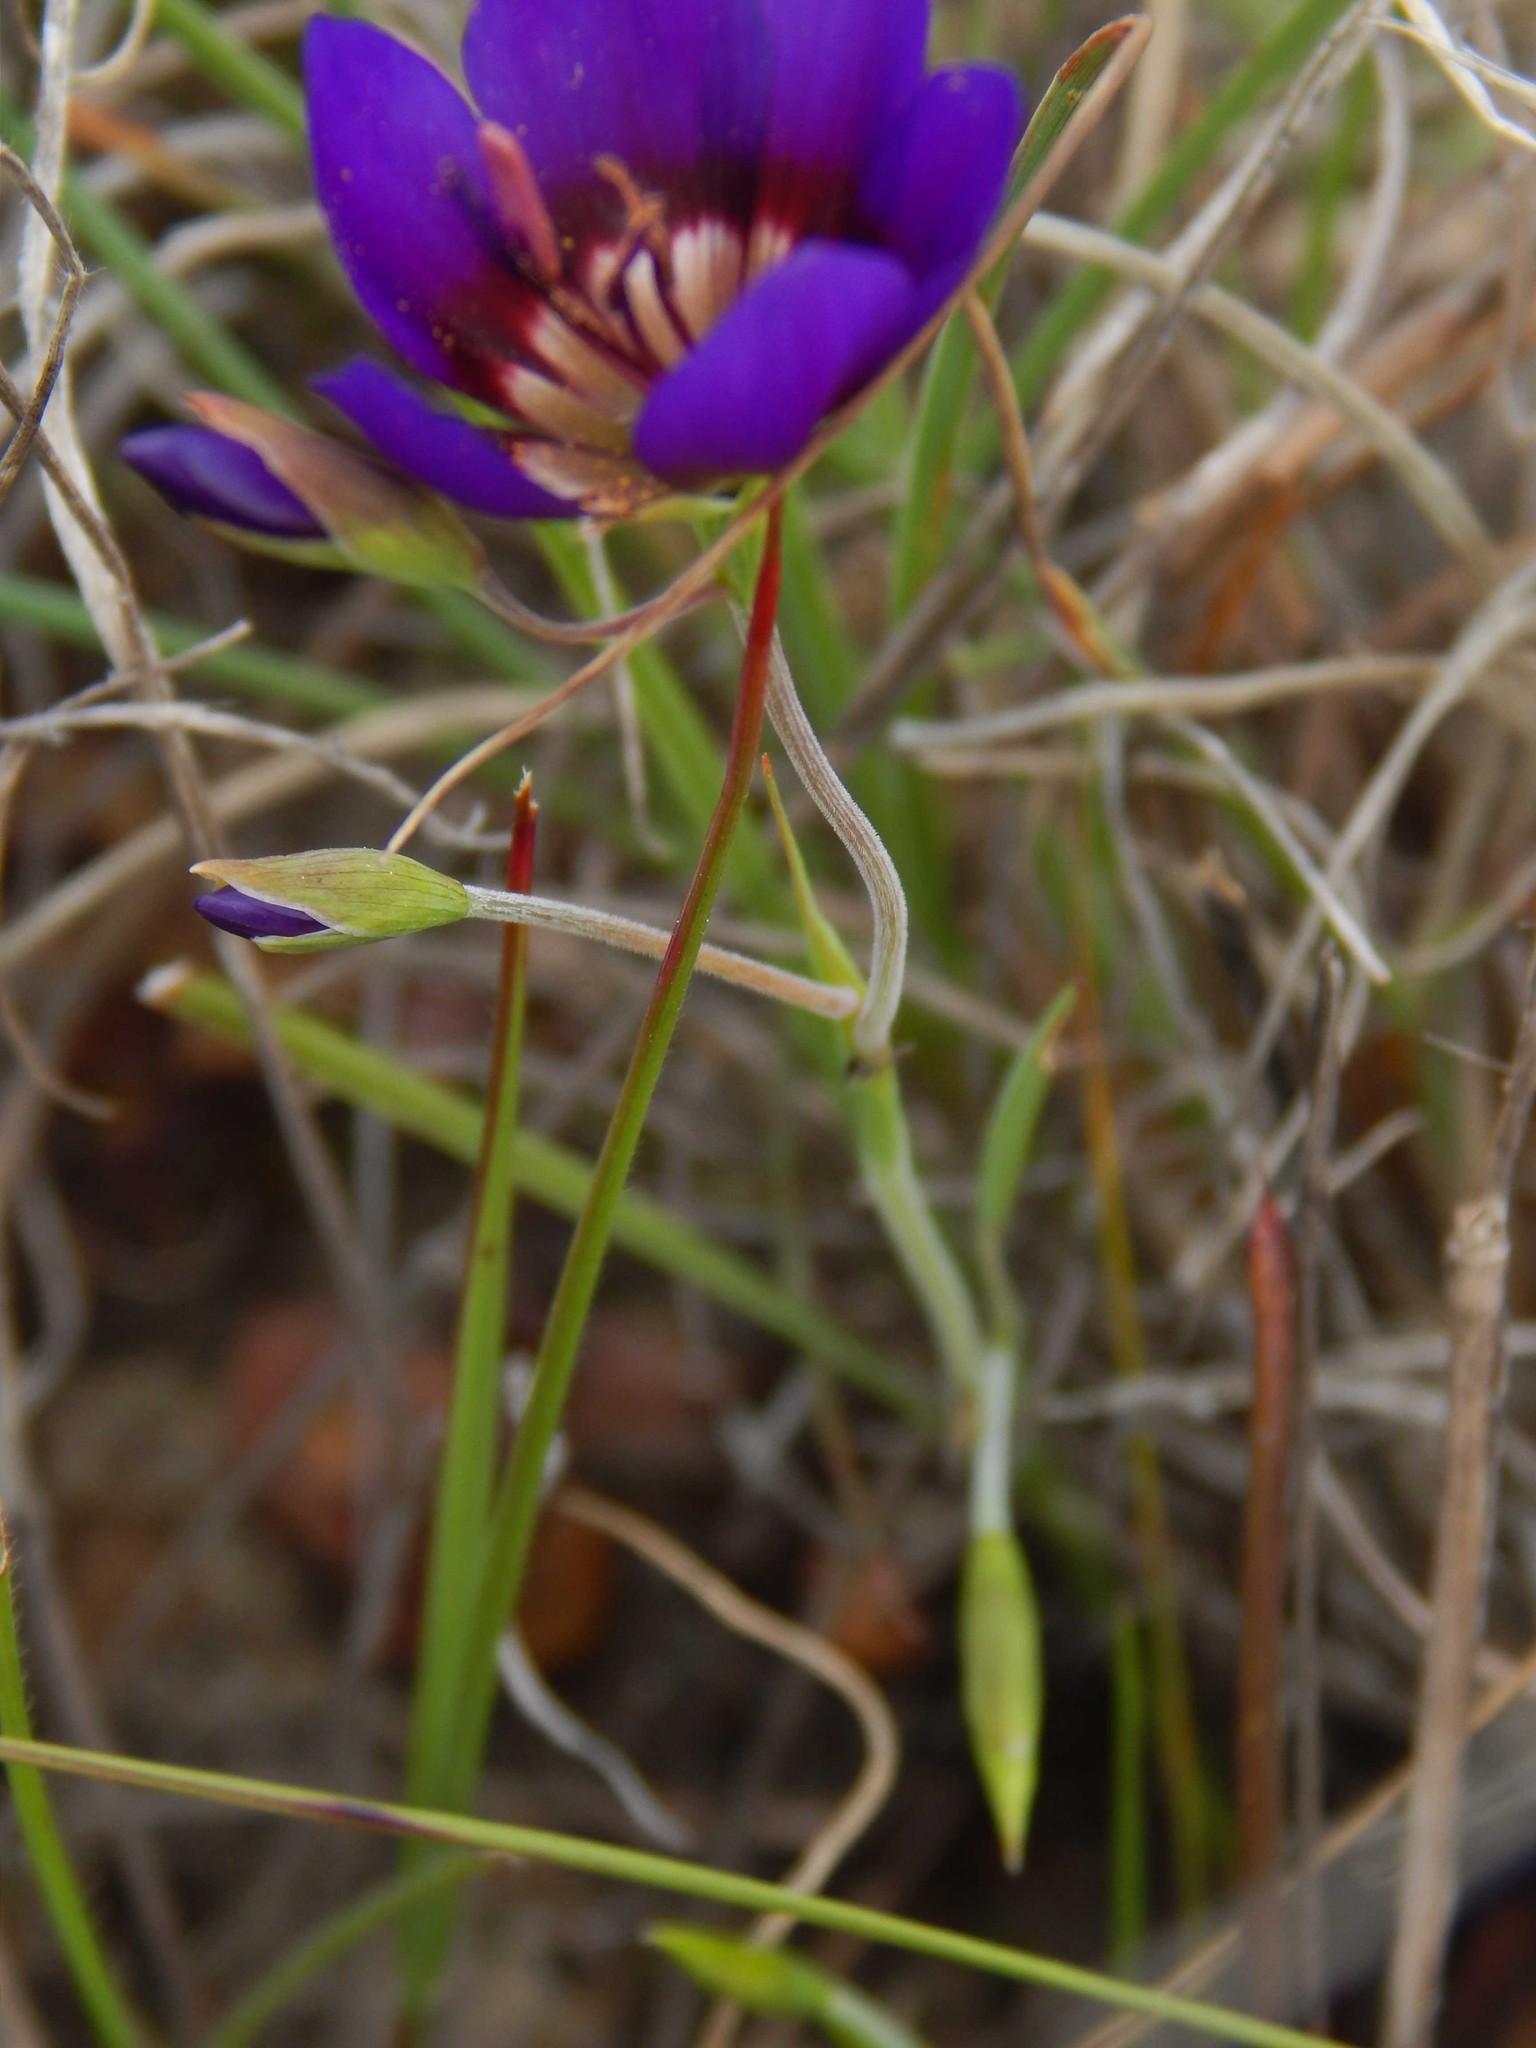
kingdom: Plantae
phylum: Tracheophyta
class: Liliopsida
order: Asparagales
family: Iridaceae
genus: Geissorhiza
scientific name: Geissorhiza monanthos
